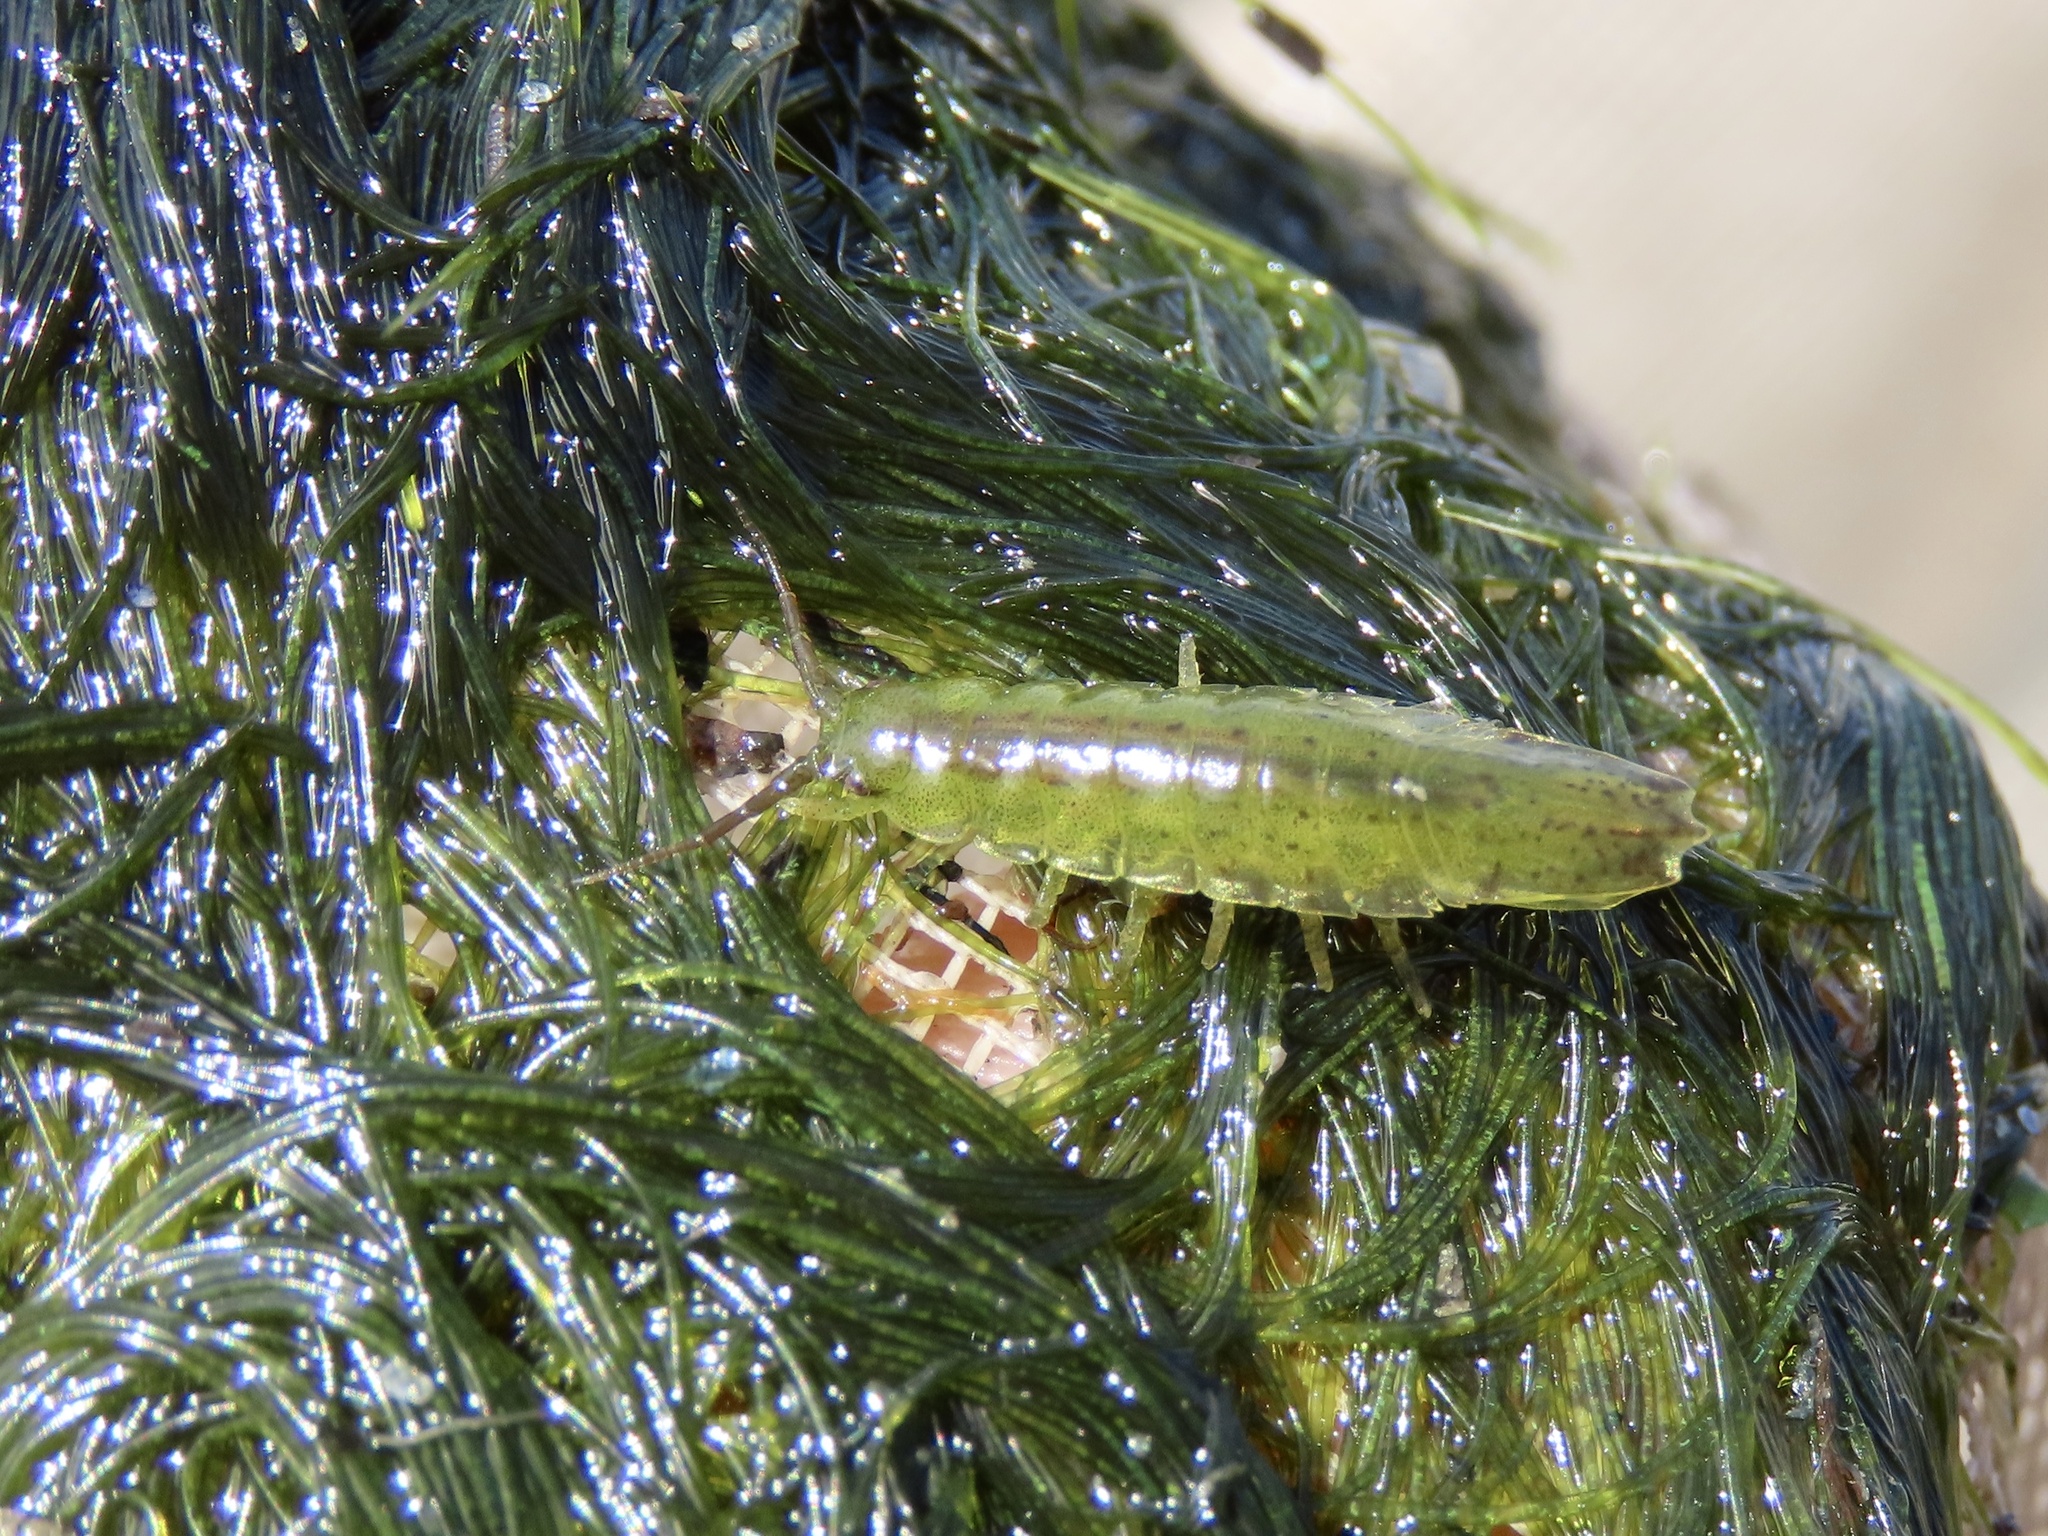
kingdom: Animalia
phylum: Arthropoda
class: Malacostraca
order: Isopoda
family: Idoteidae
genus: Idotea
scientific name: Idotea balthica
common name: Baltic isopod
